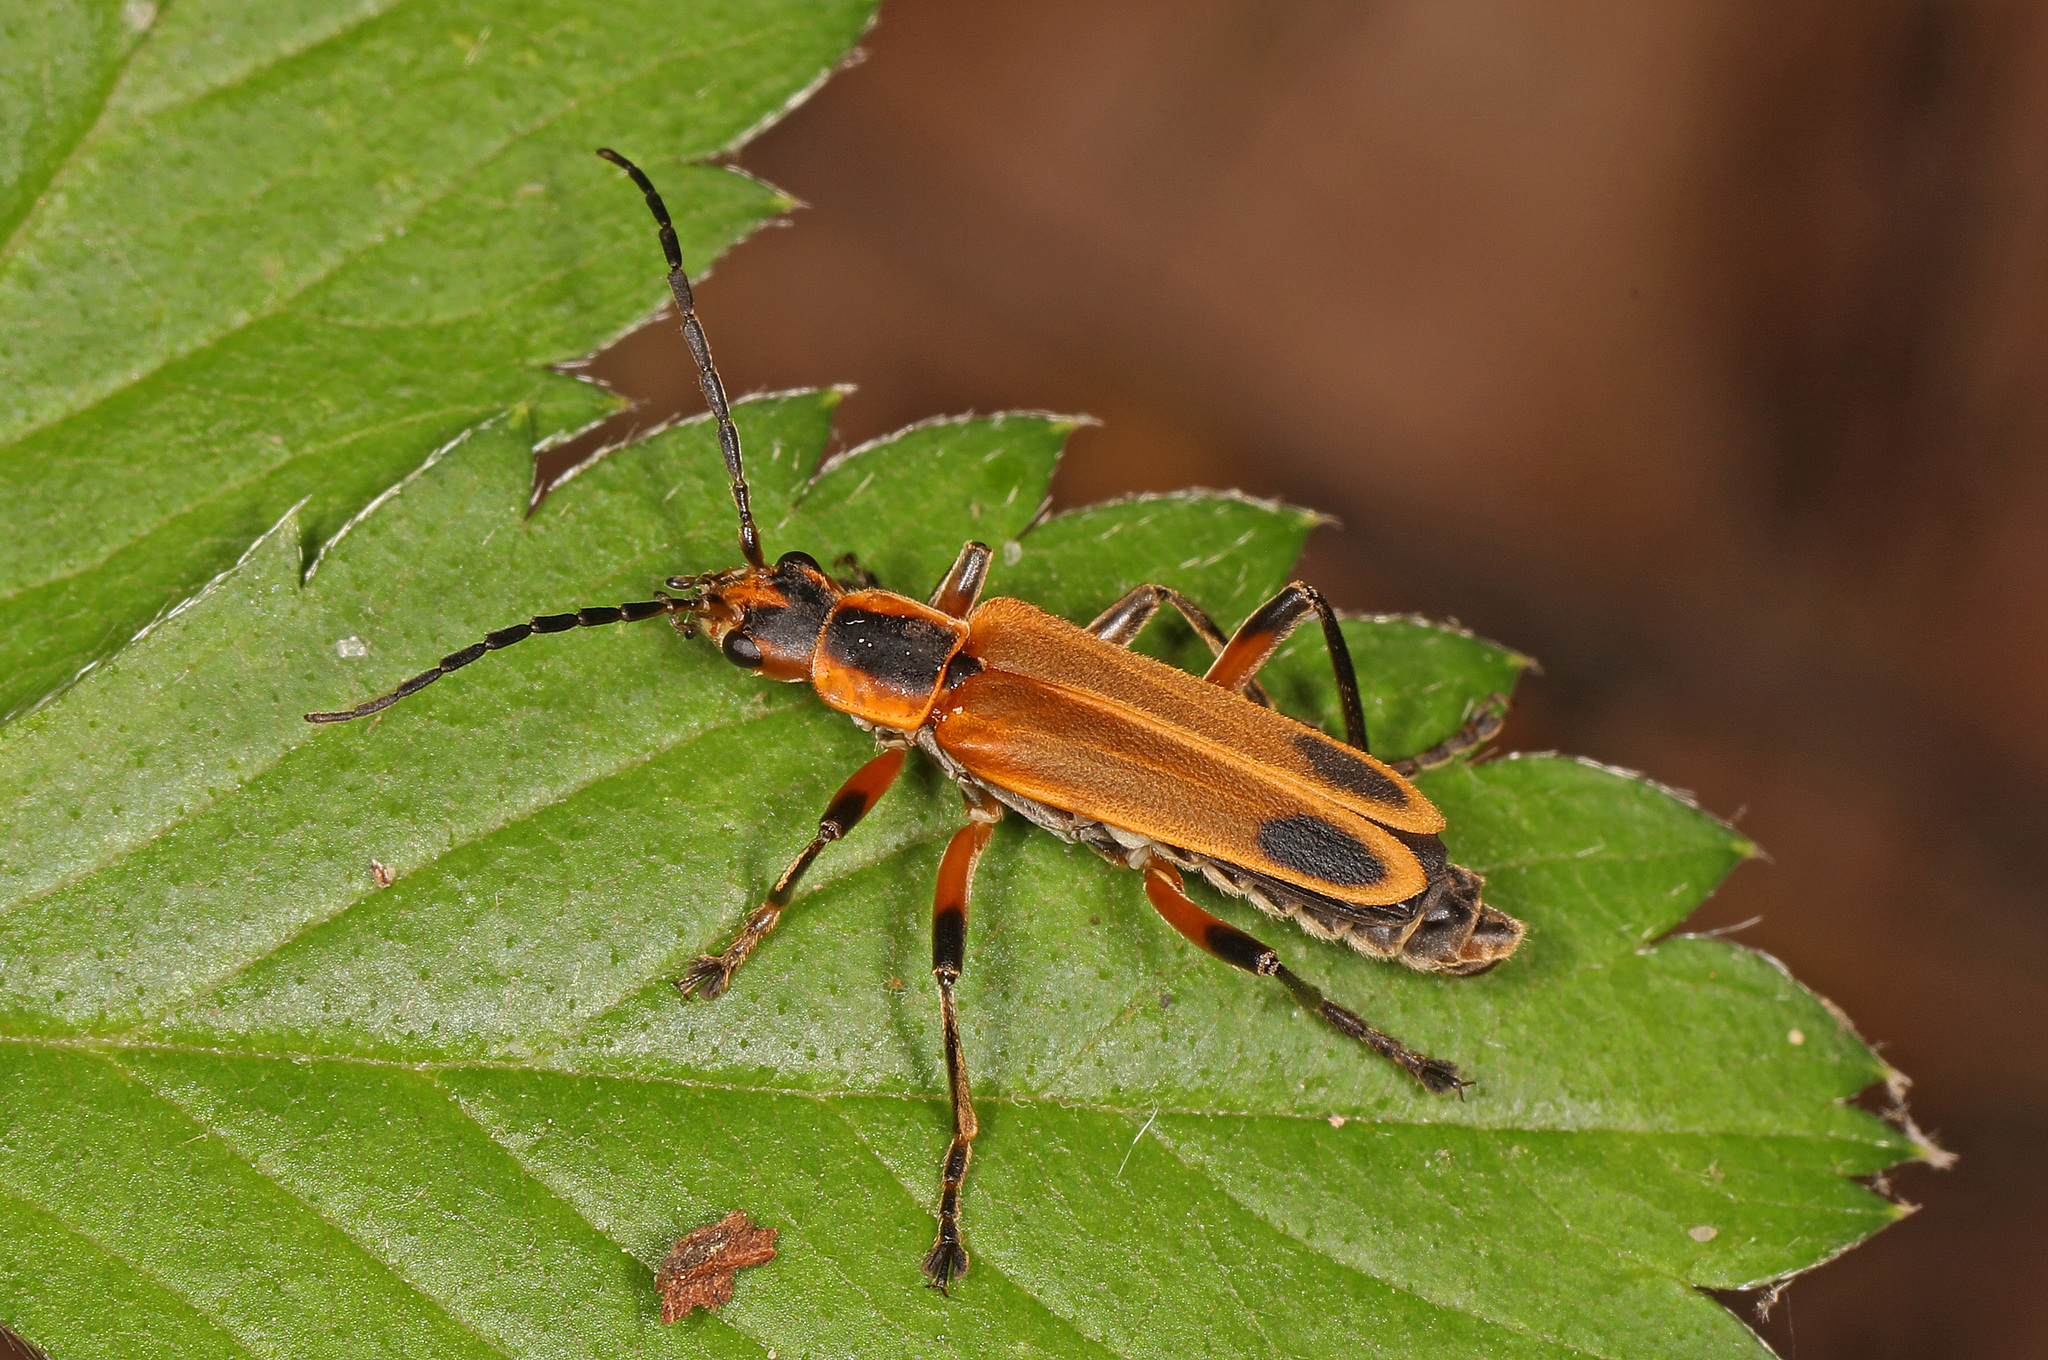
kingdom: Animalia
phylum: Arthropoda
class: Insecta
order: Coleoptera
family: Cantharidae
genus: Chauliognathus
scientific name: Chauliognathus marginatus
